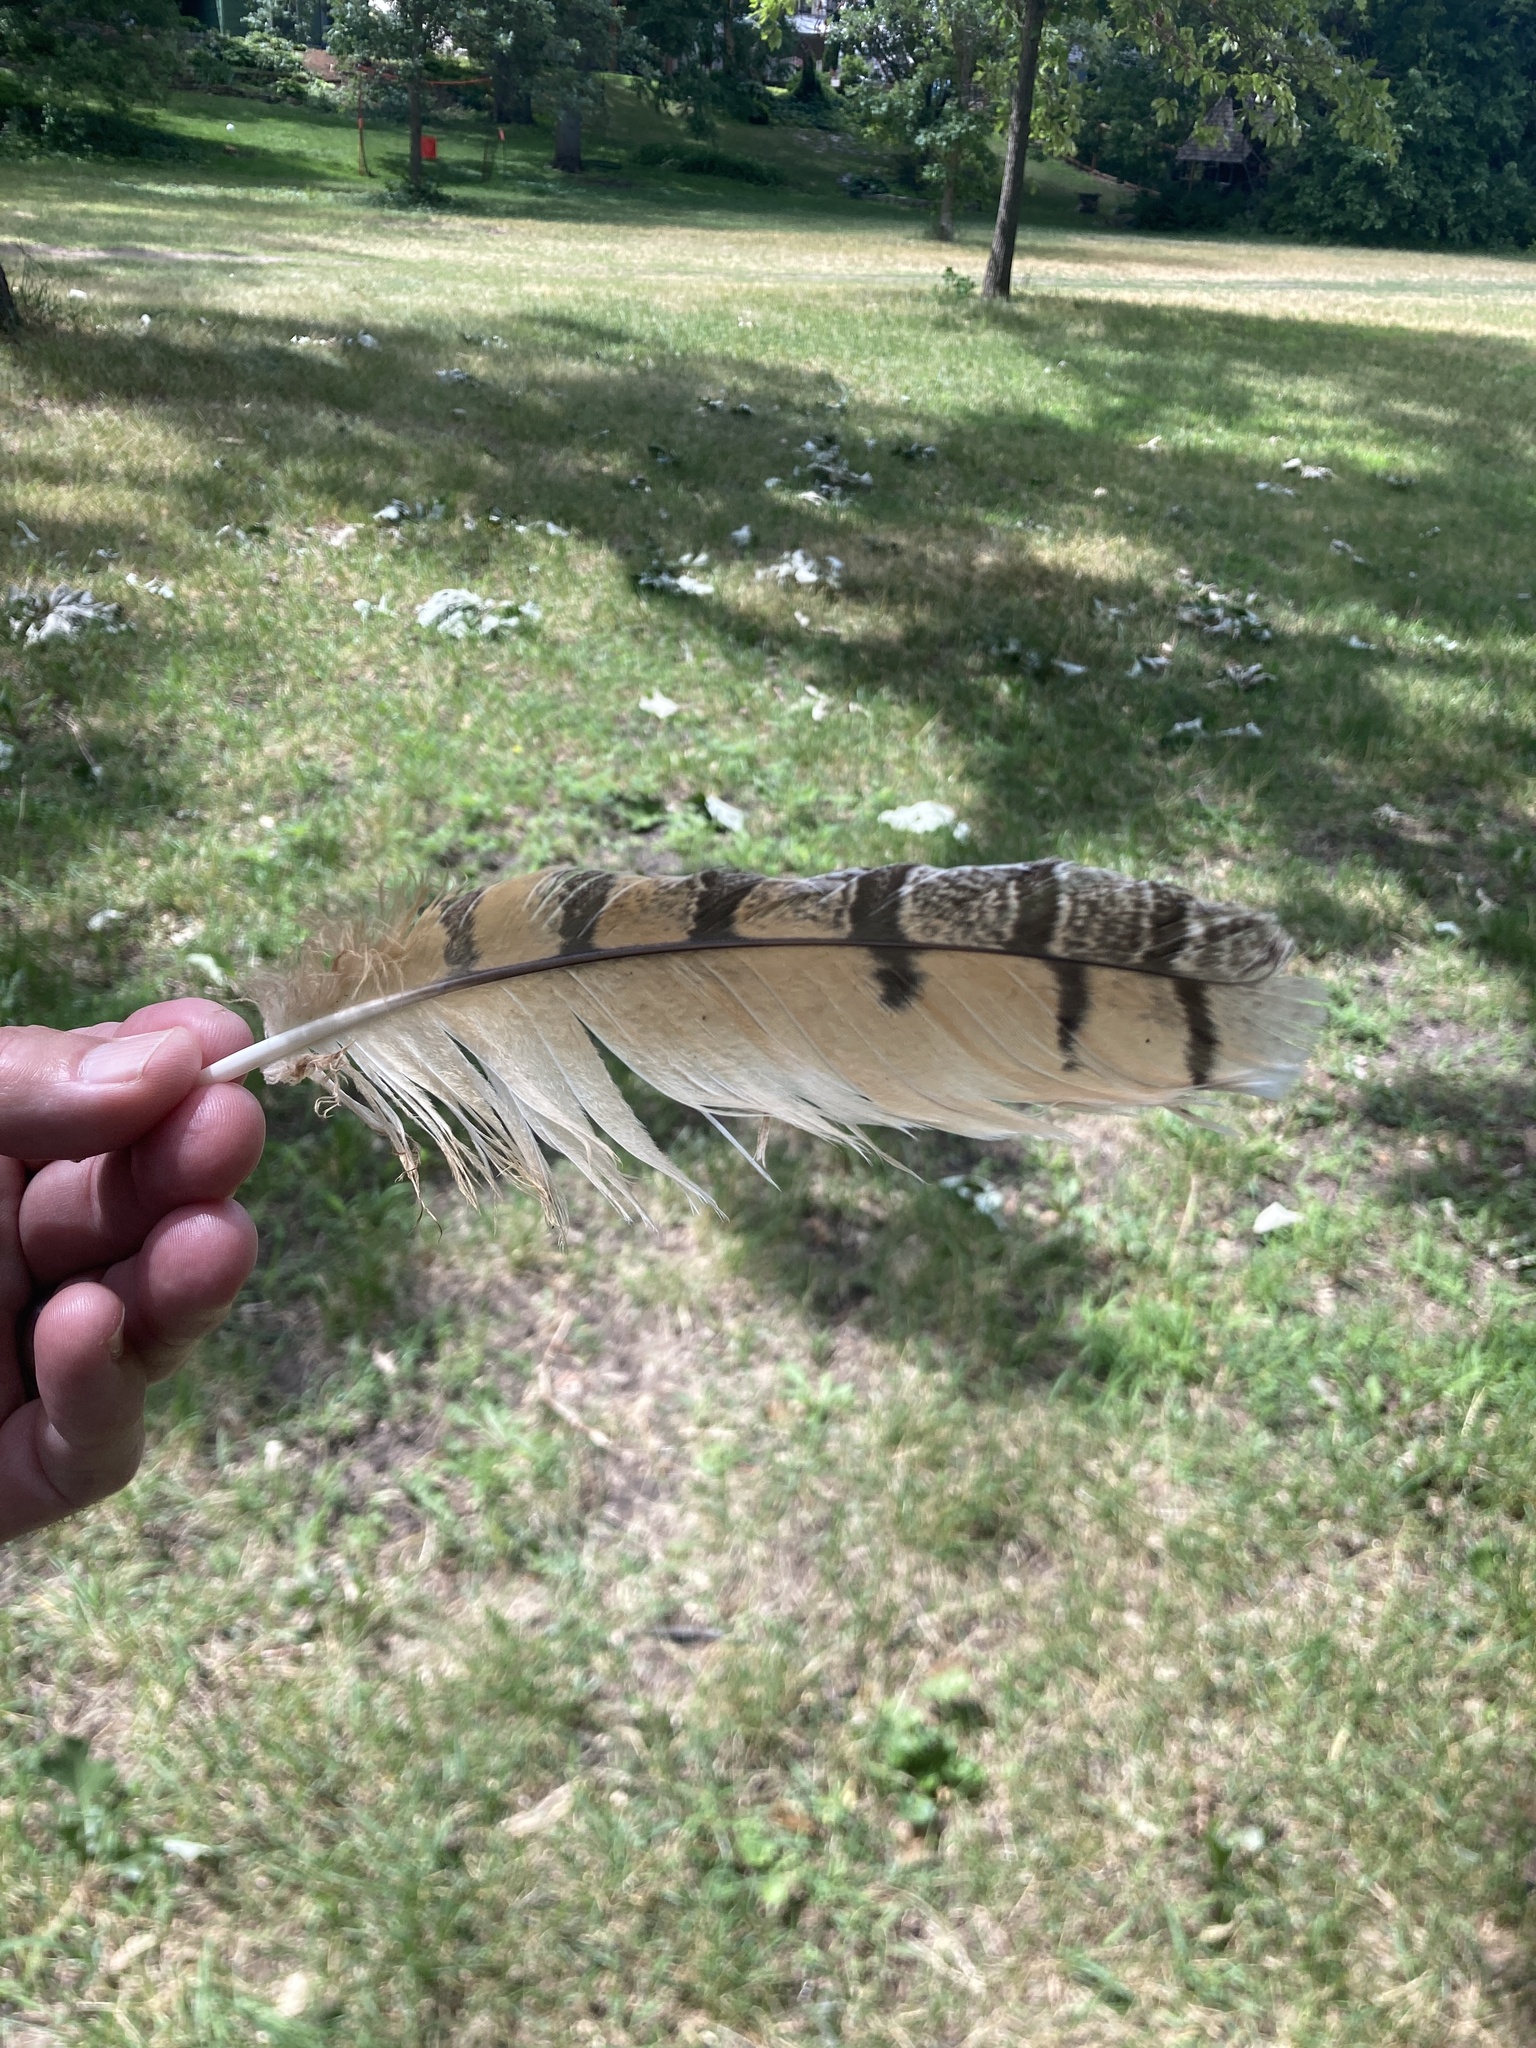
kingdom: Animalia
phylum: Chordata
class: Aves
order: Strigiformes
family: Strigidae
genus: Bubo
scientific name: Bubo virginianus
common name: Great horned owl
